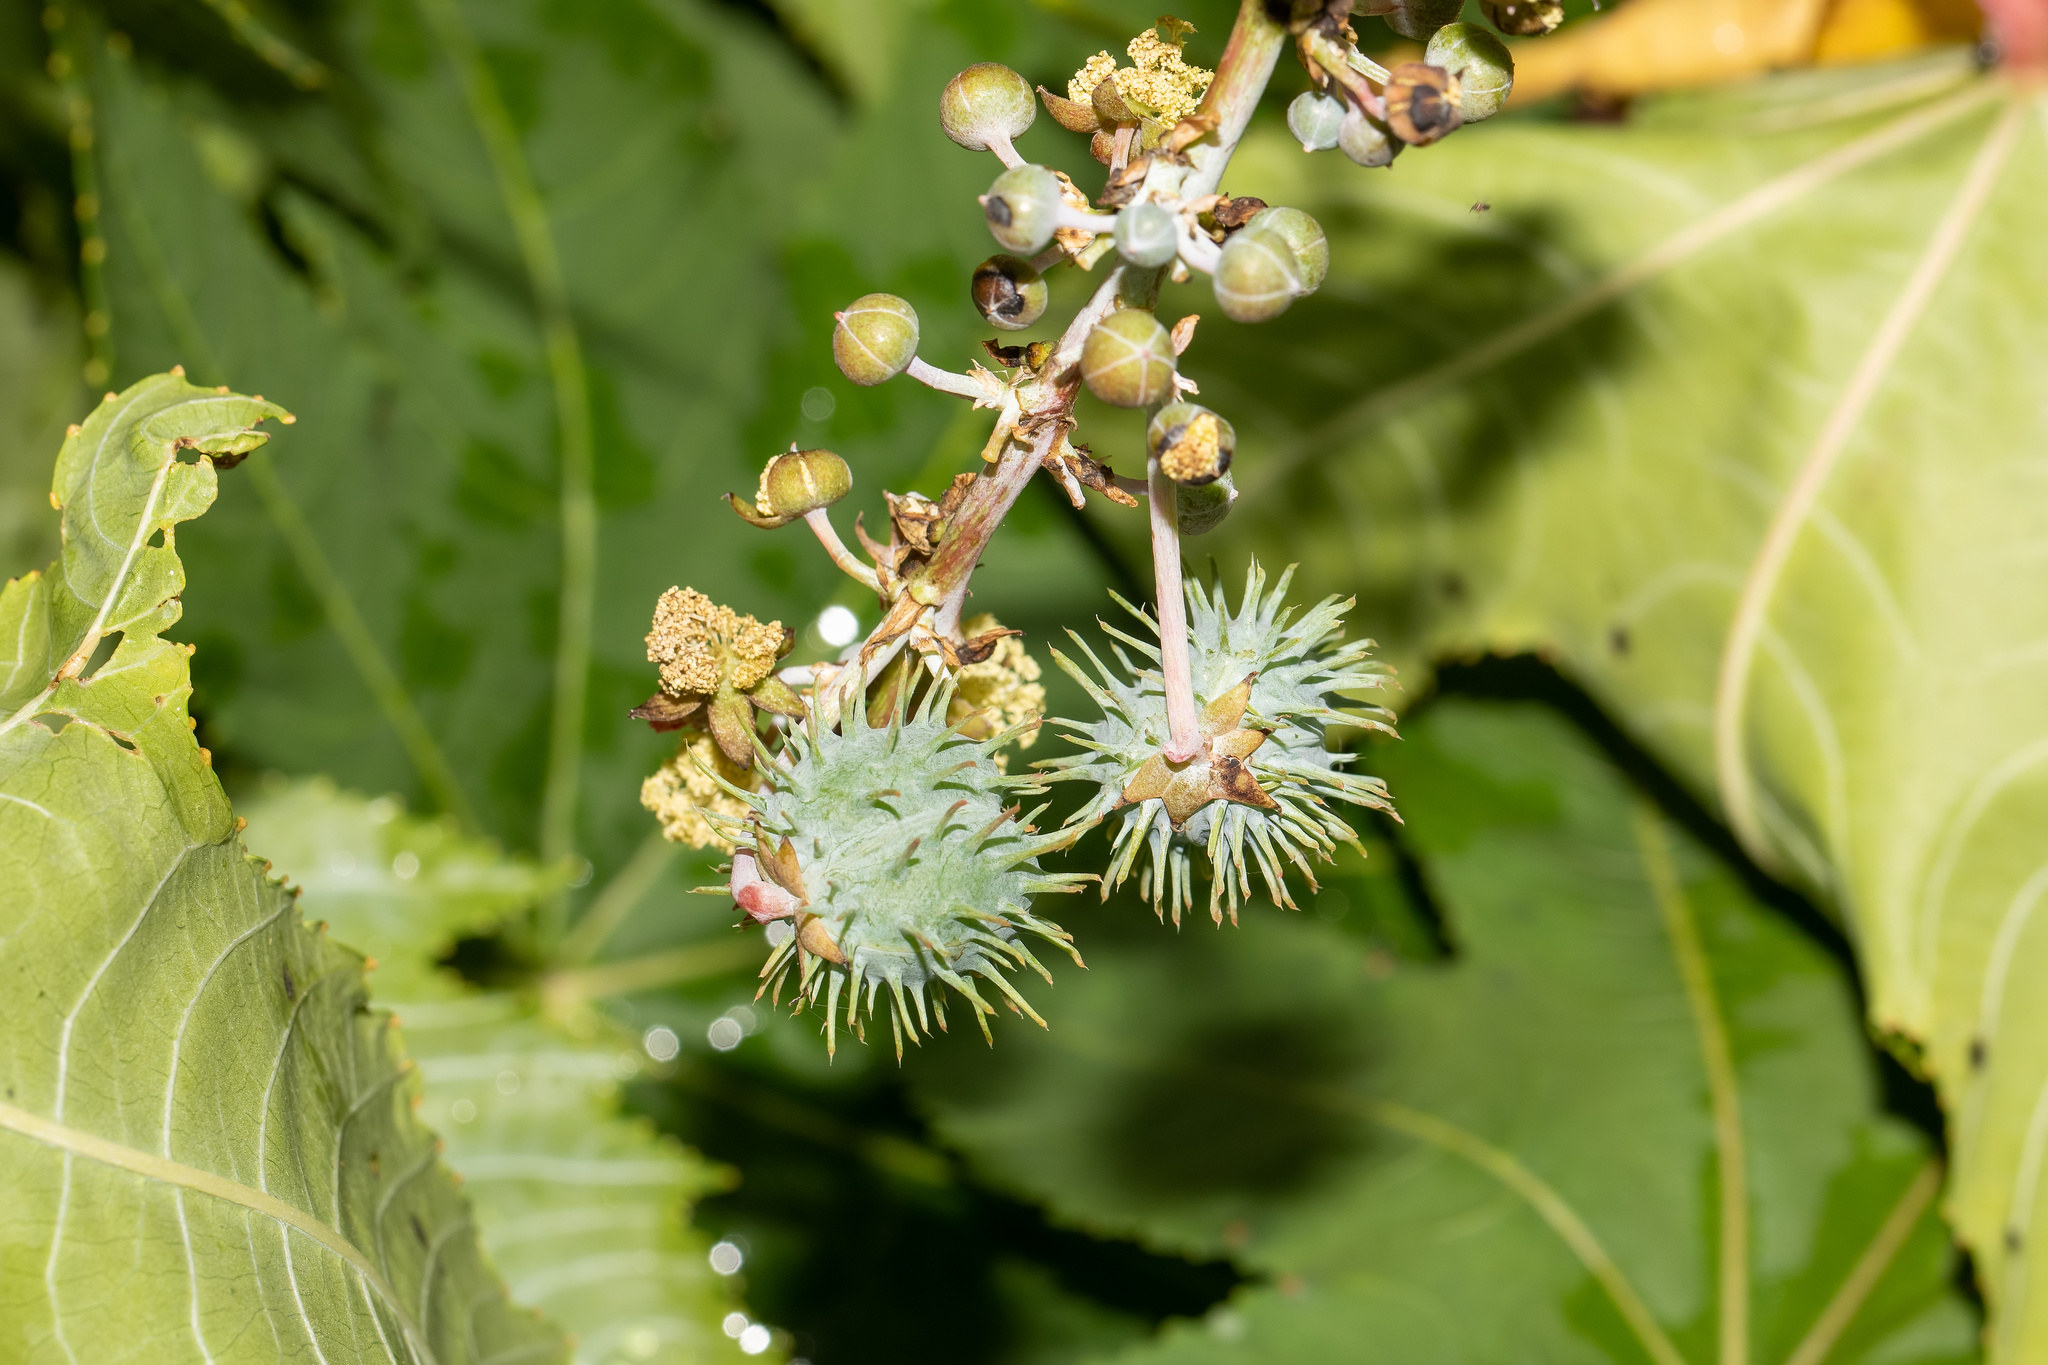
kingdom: Plantae
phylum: Tracheophyta
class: Magnoliopsida
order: Malpighiales
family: Euphorbiaceae
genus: Ricinus
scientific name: Ricinus communis
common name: Castor-oil-plant
